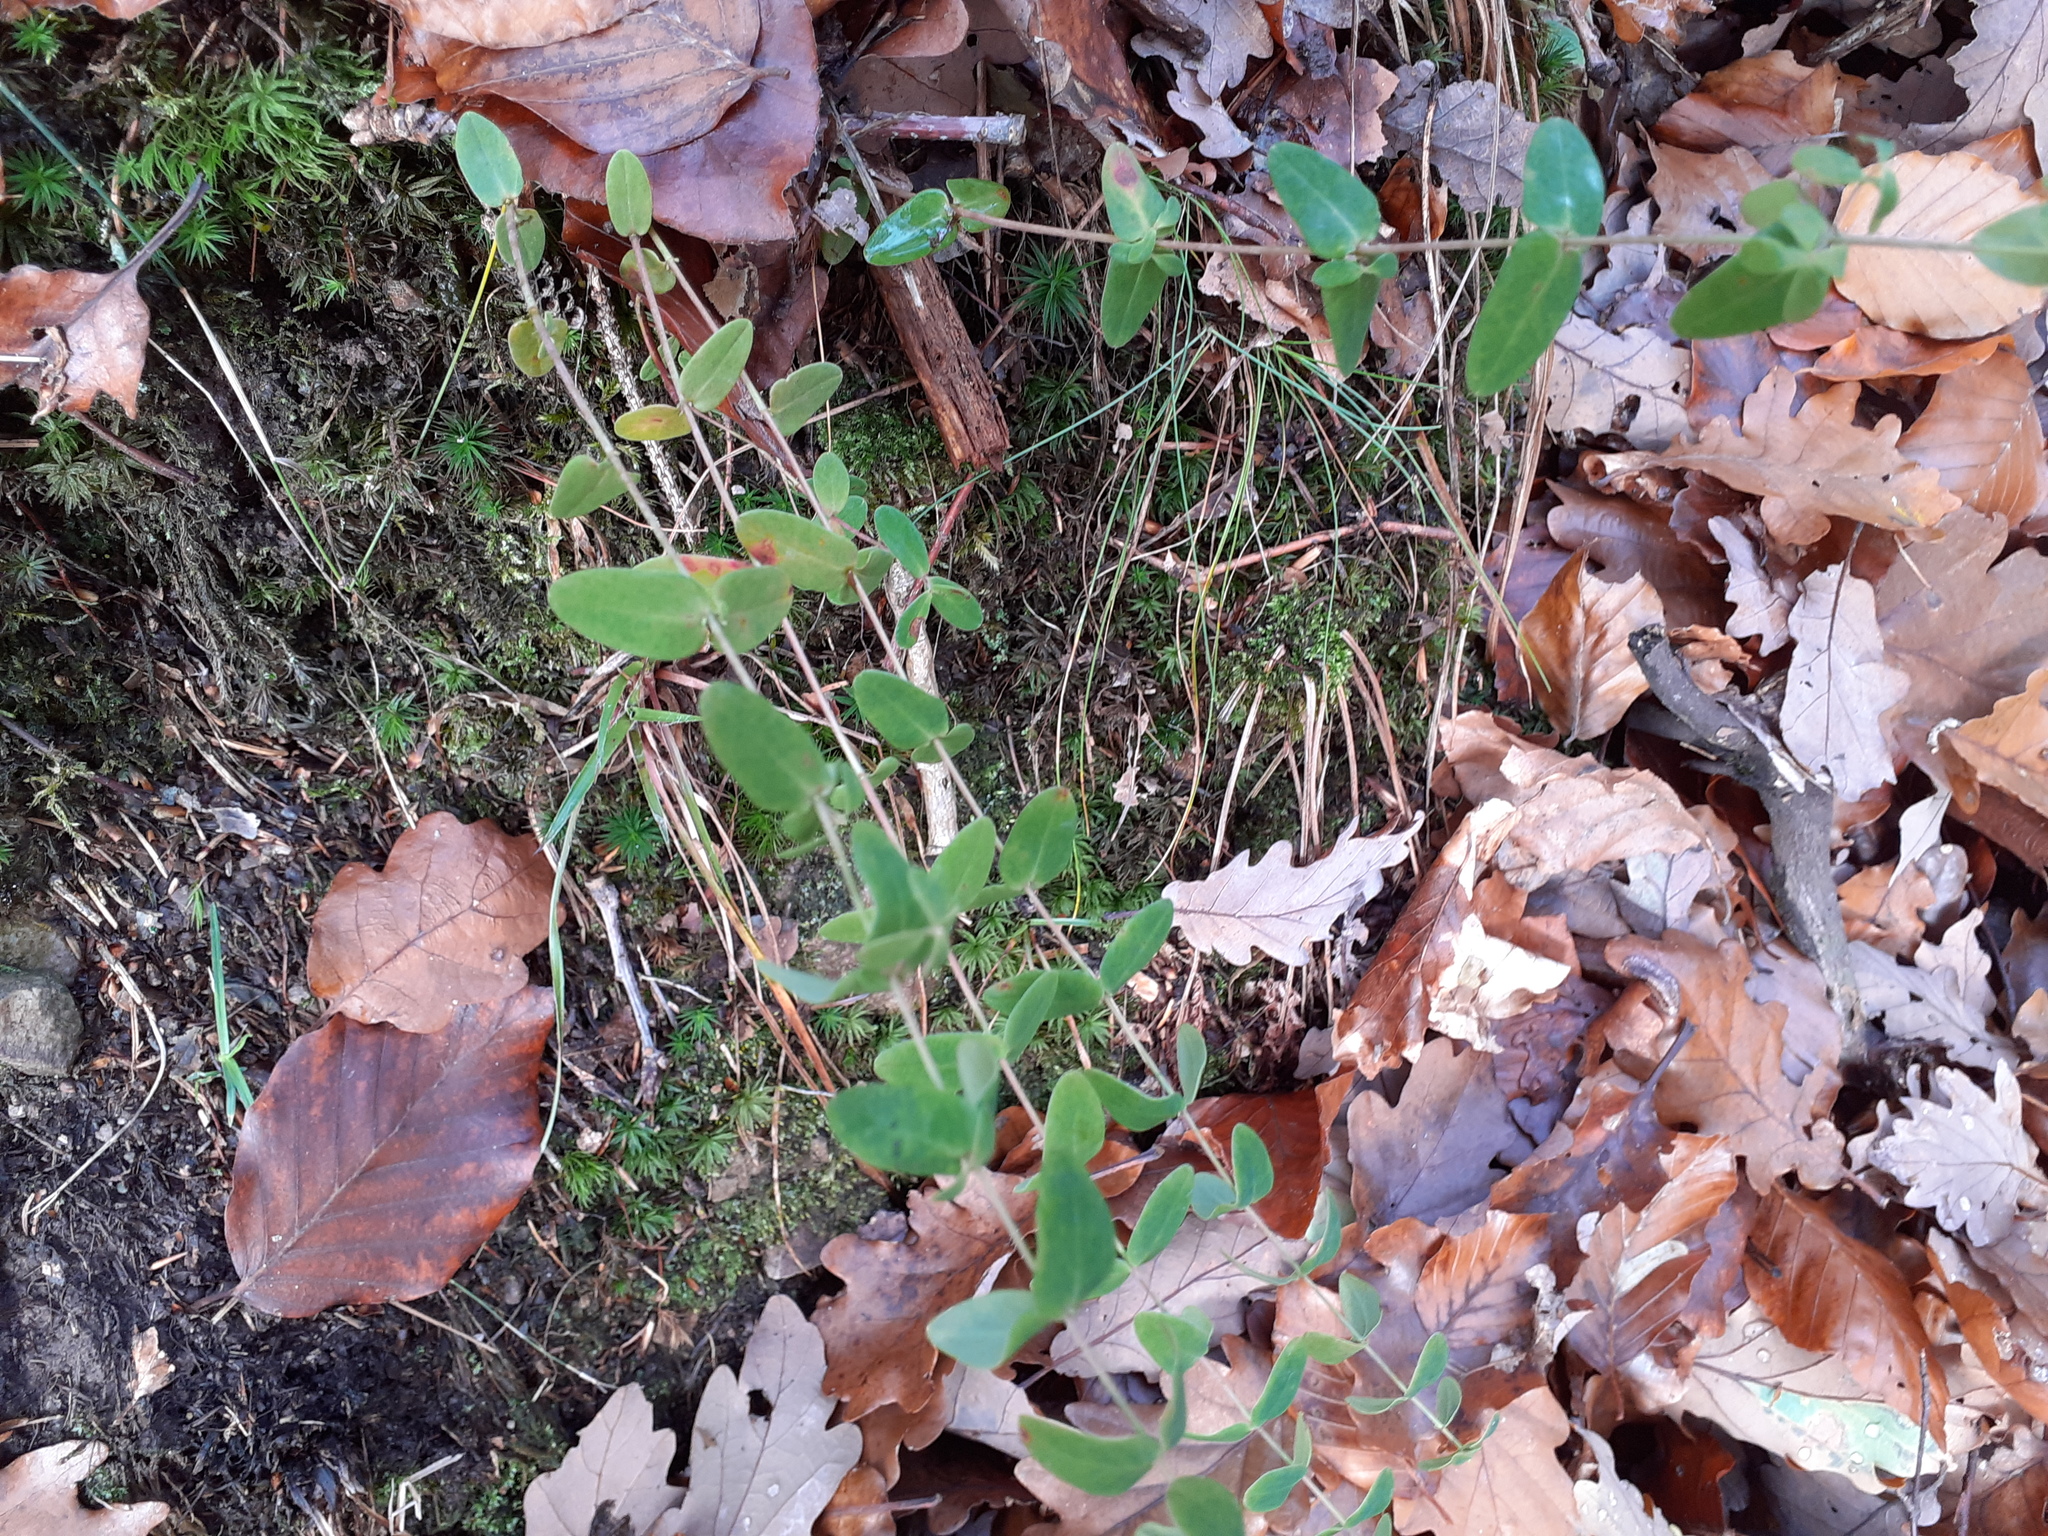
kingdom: Plantae
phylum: Tracheophyta
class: Magnoliopsida
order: Malpighiales
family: Hypericaceae
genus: Hypericum
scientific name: Hypericum pulchrum
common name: Slender st. john's-wort
